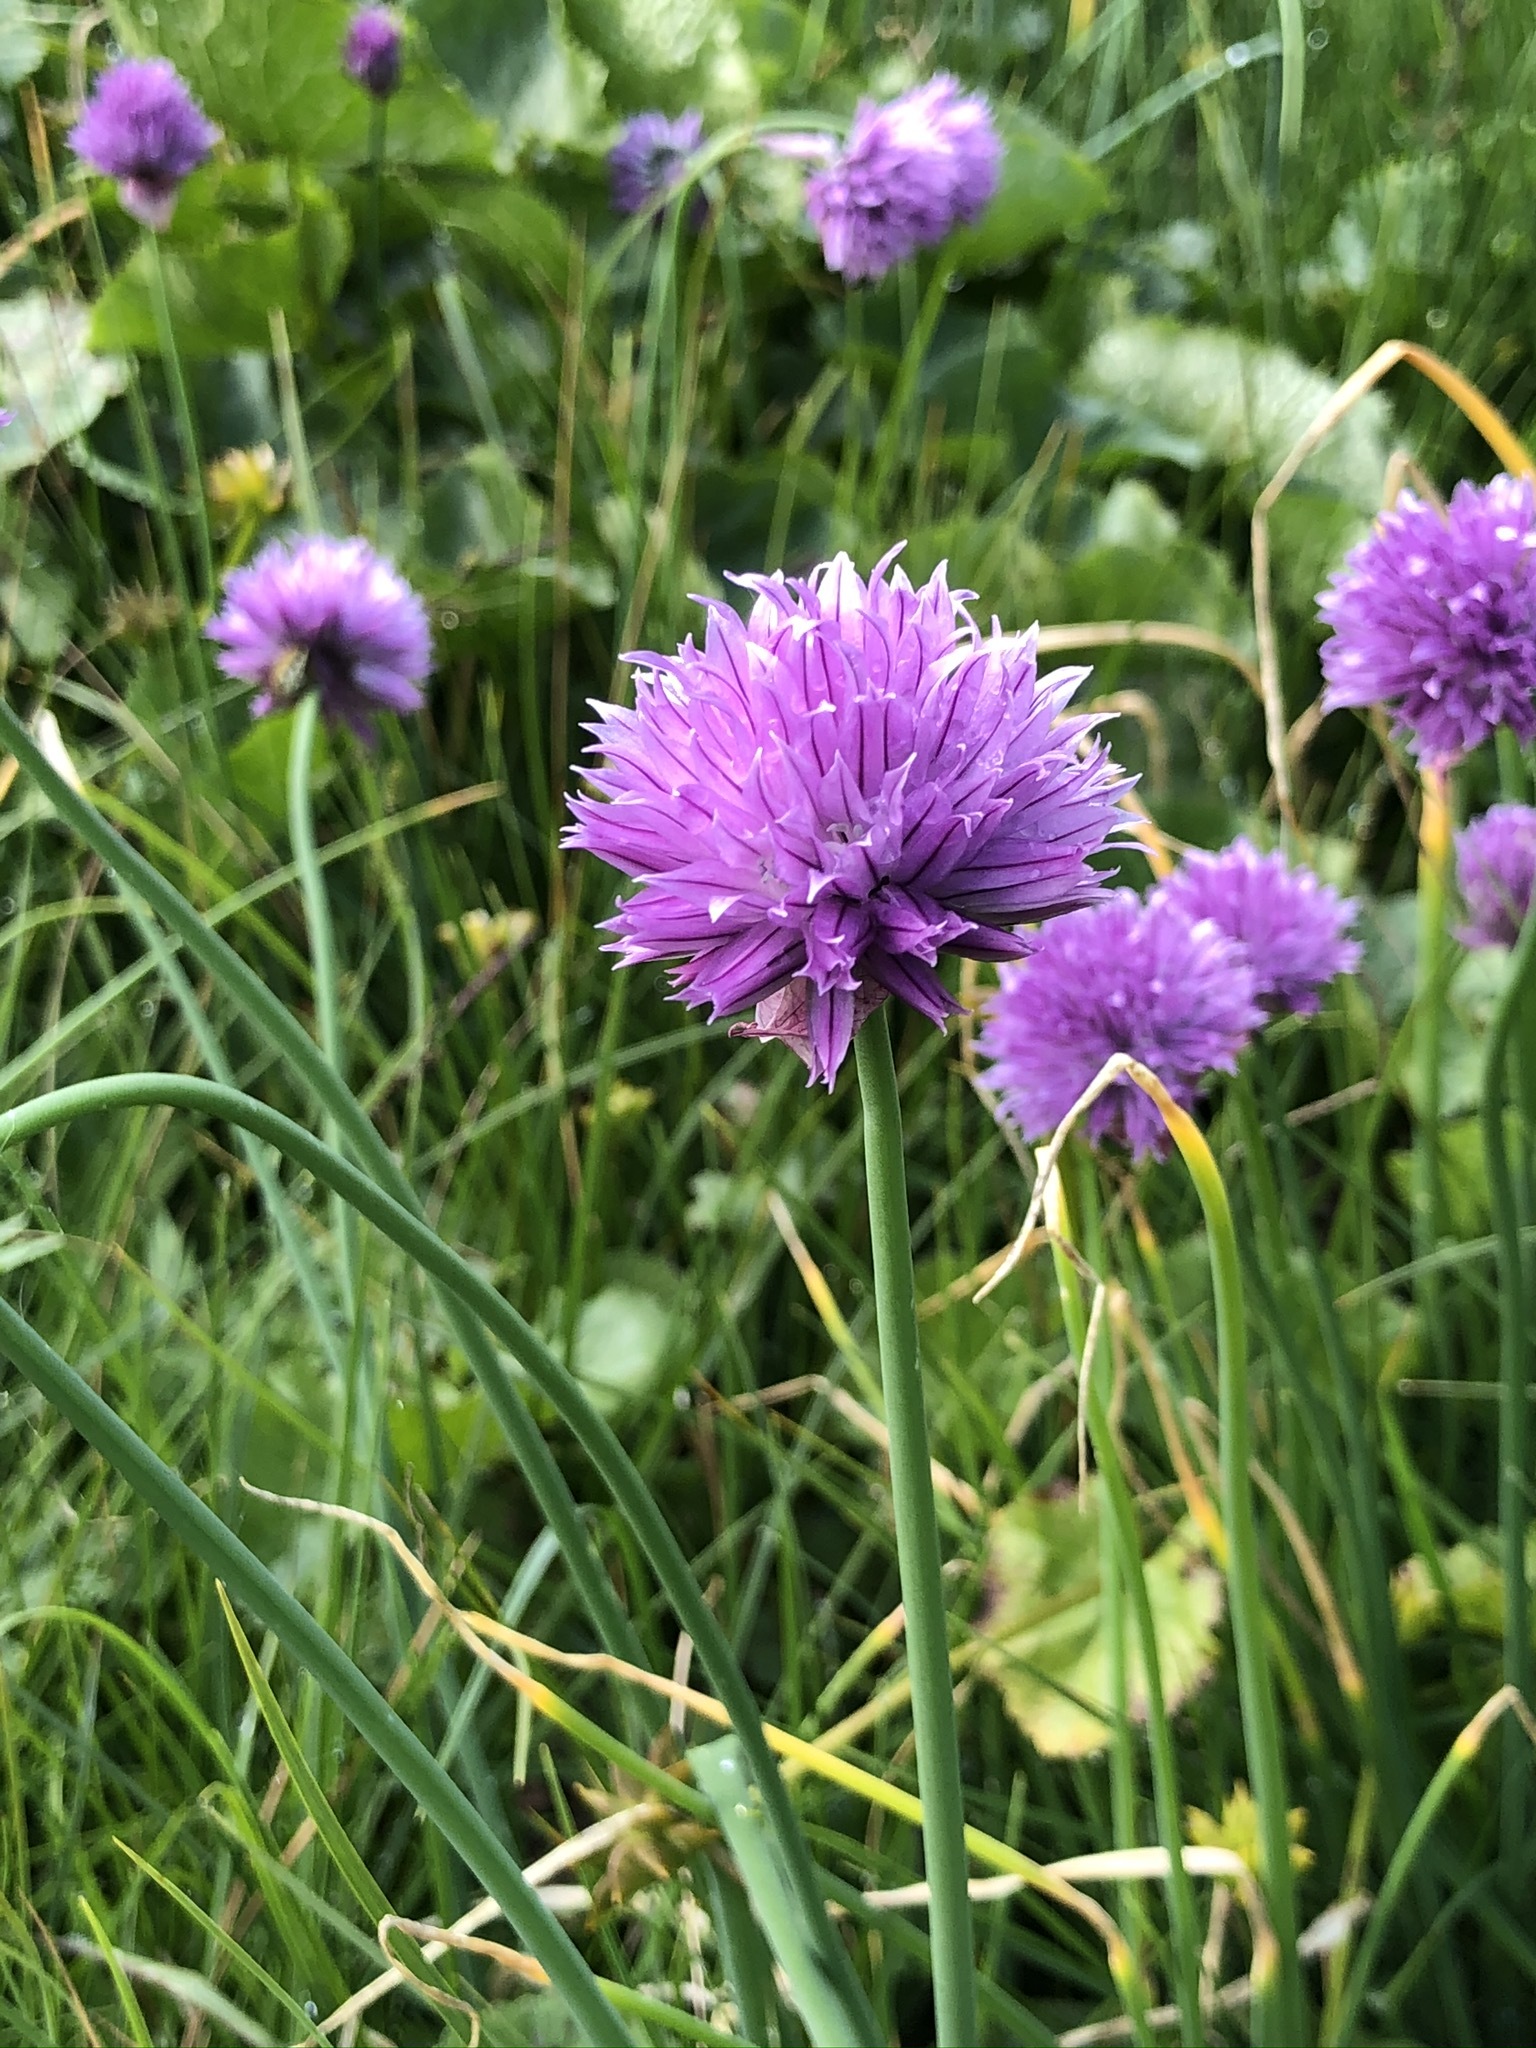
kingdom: Plantae
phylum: Tracheophyta
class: Liliopsida
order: Asparagales
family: Amaryllidaceae
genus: Allium
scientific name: Allium schoenoprasum
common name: Chives
